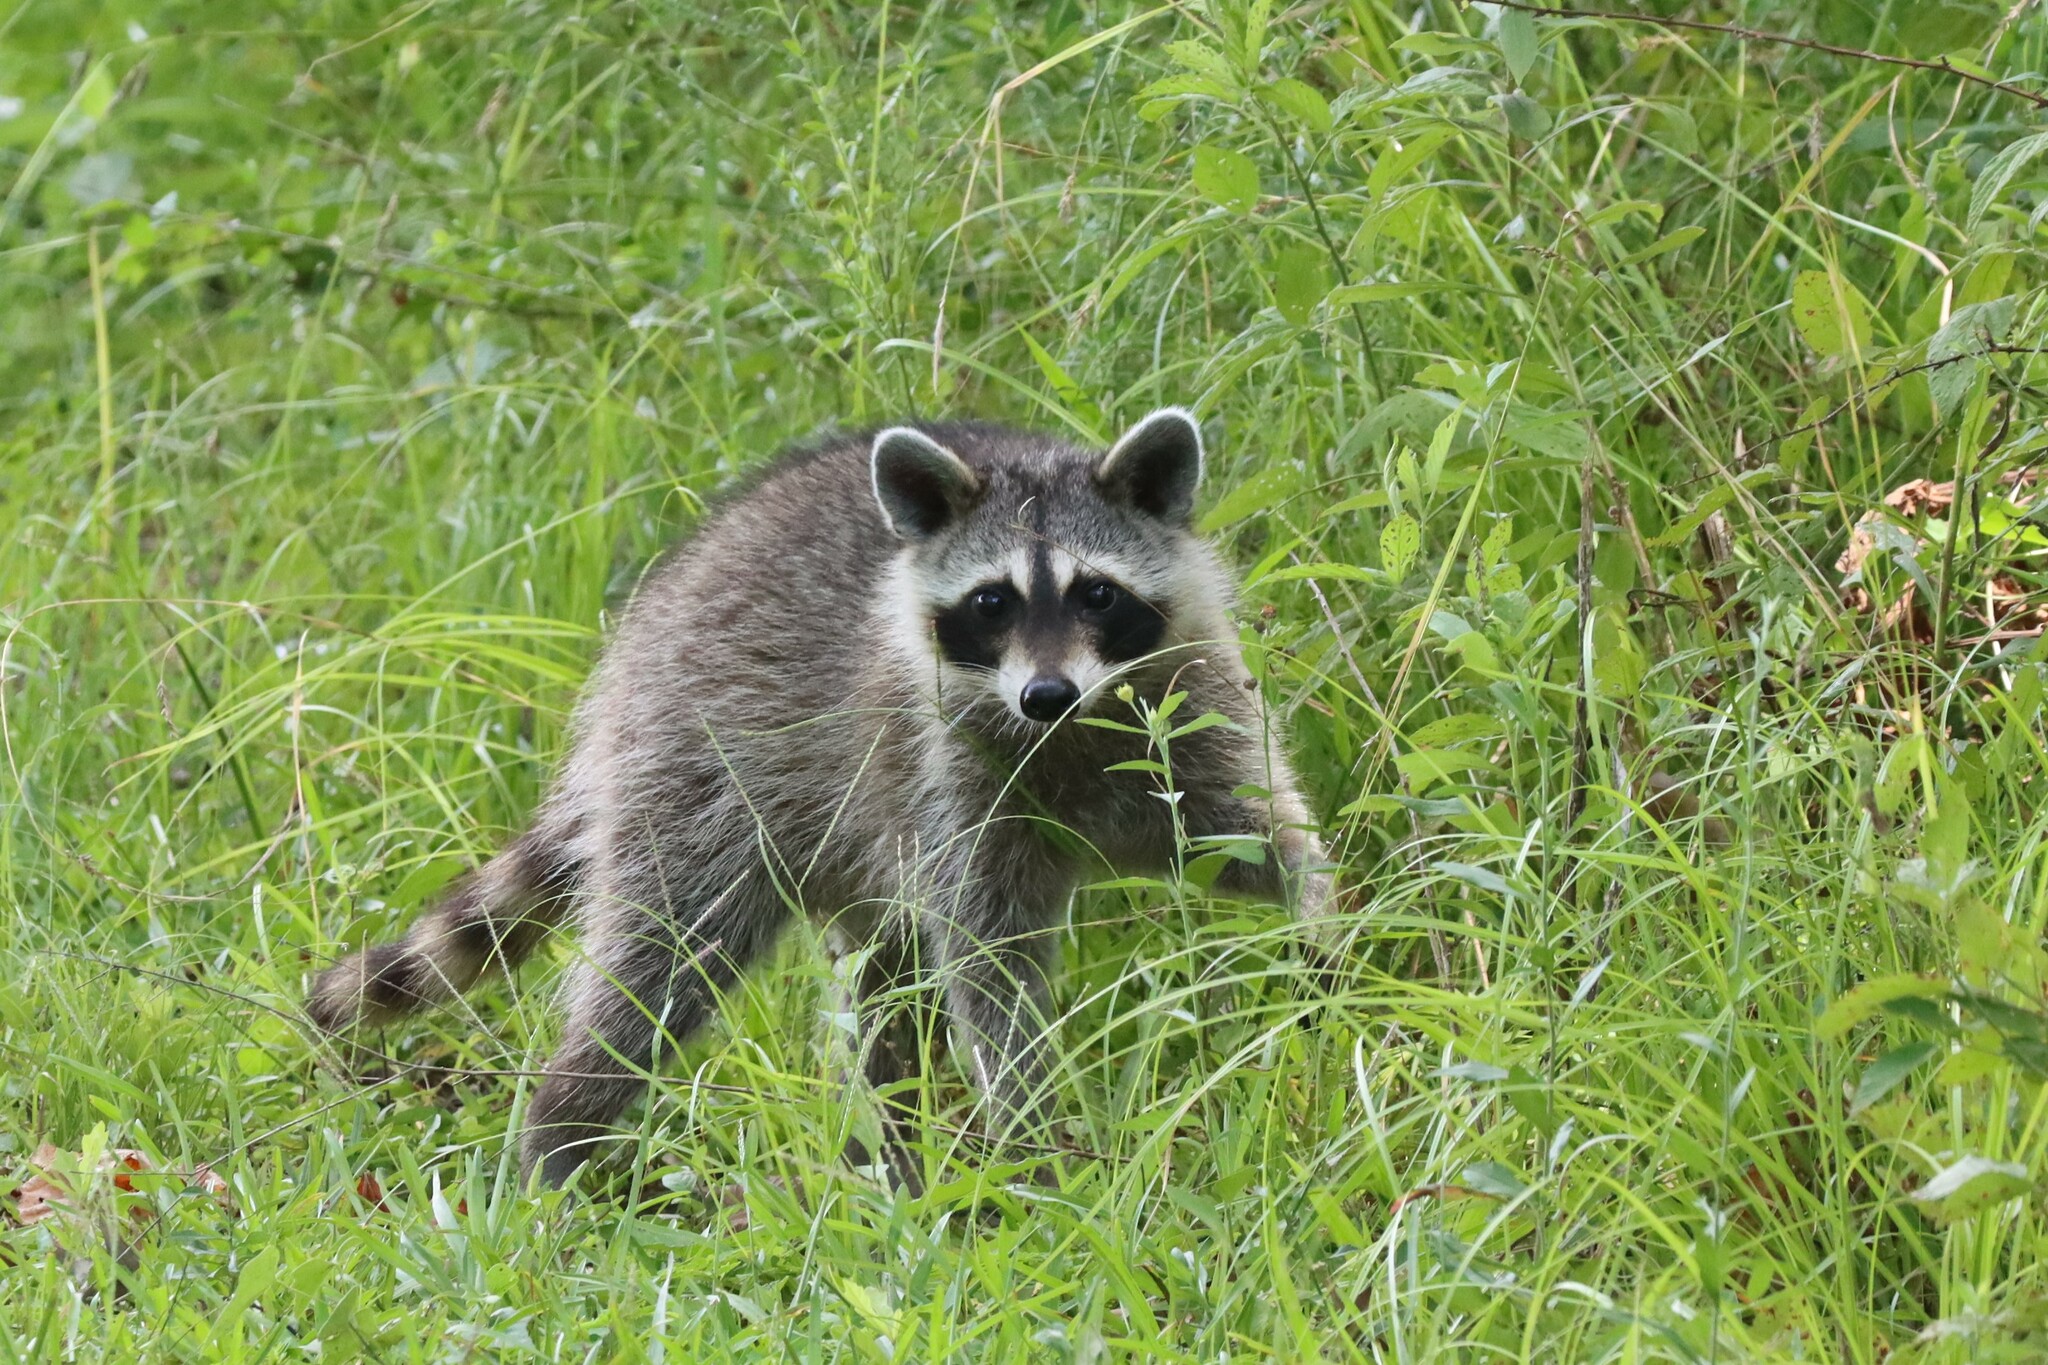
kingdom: Animalia
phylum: Chordata
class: Mammalia
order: Carnivora
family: Procyonidae
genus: Procyon
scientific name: Procyon lotor
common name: Raccoon
